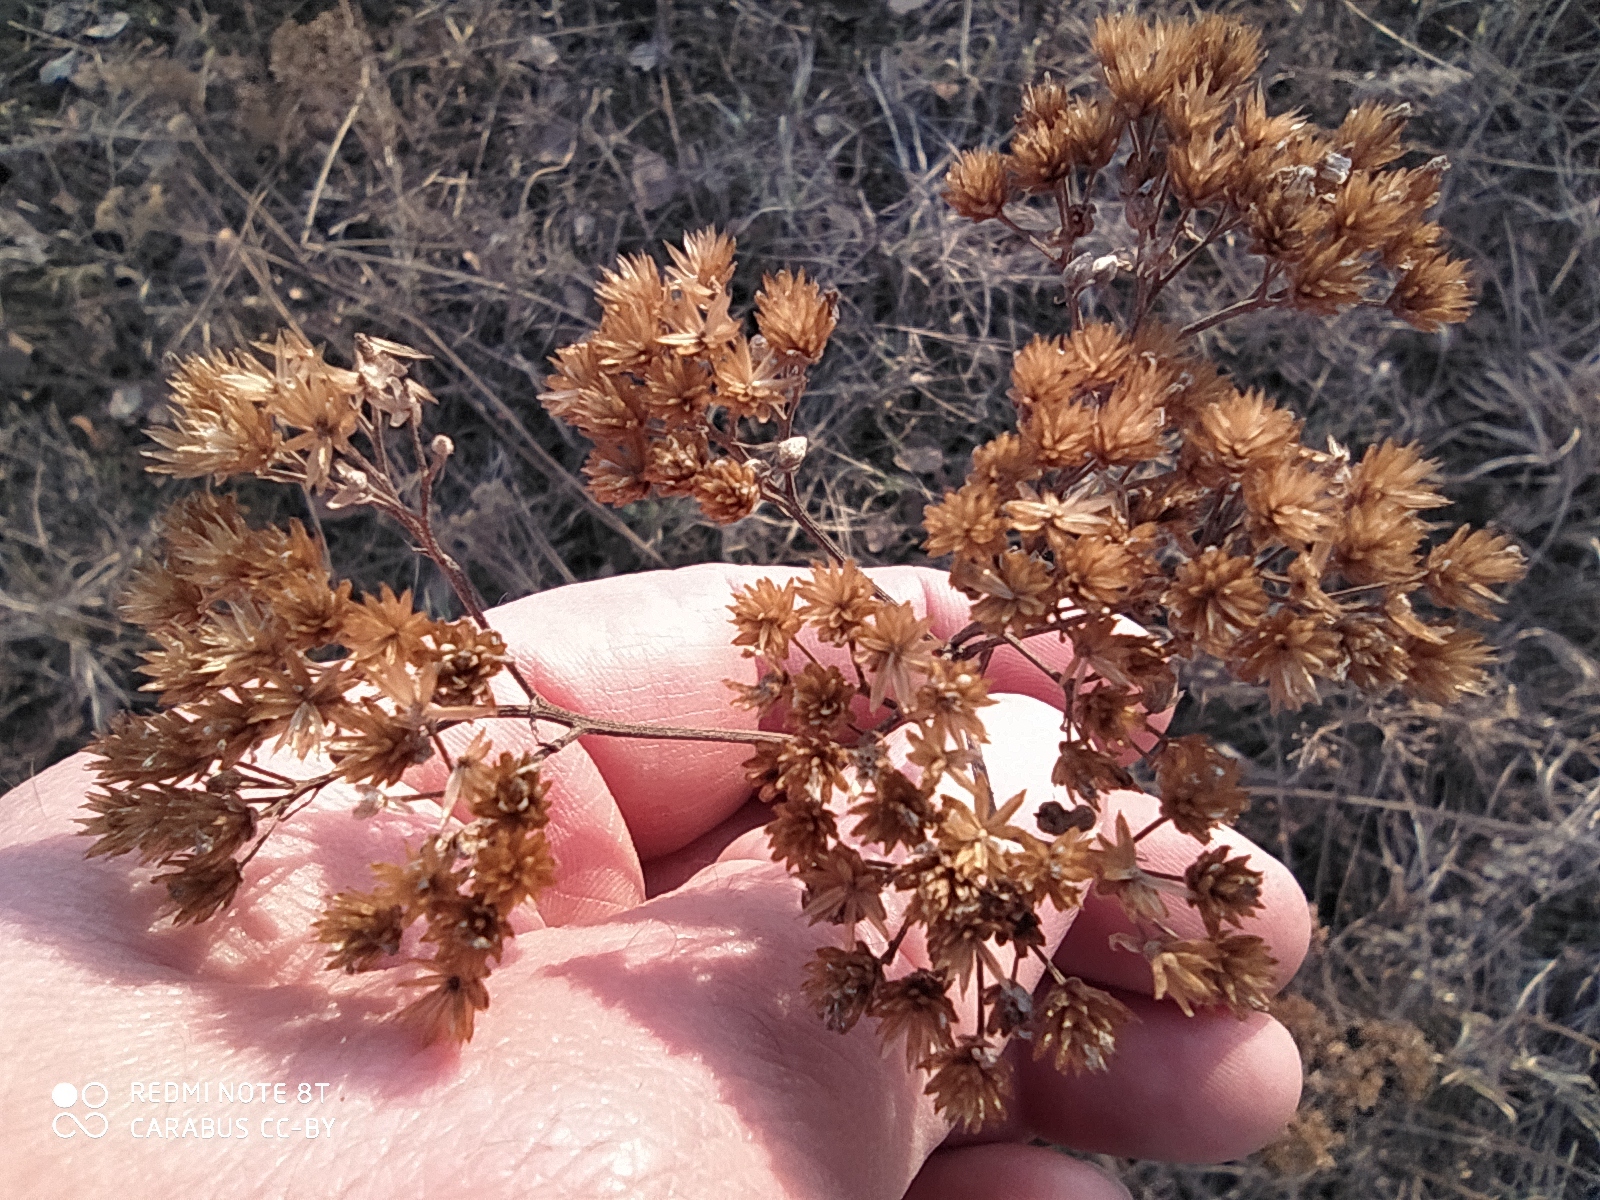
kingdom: Plantae
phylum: Tracheophyta
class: Magnoliopsida
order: Asterales
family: Asteraceae
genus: Achillea
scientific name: Achillea millefolium
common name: Yarrow
